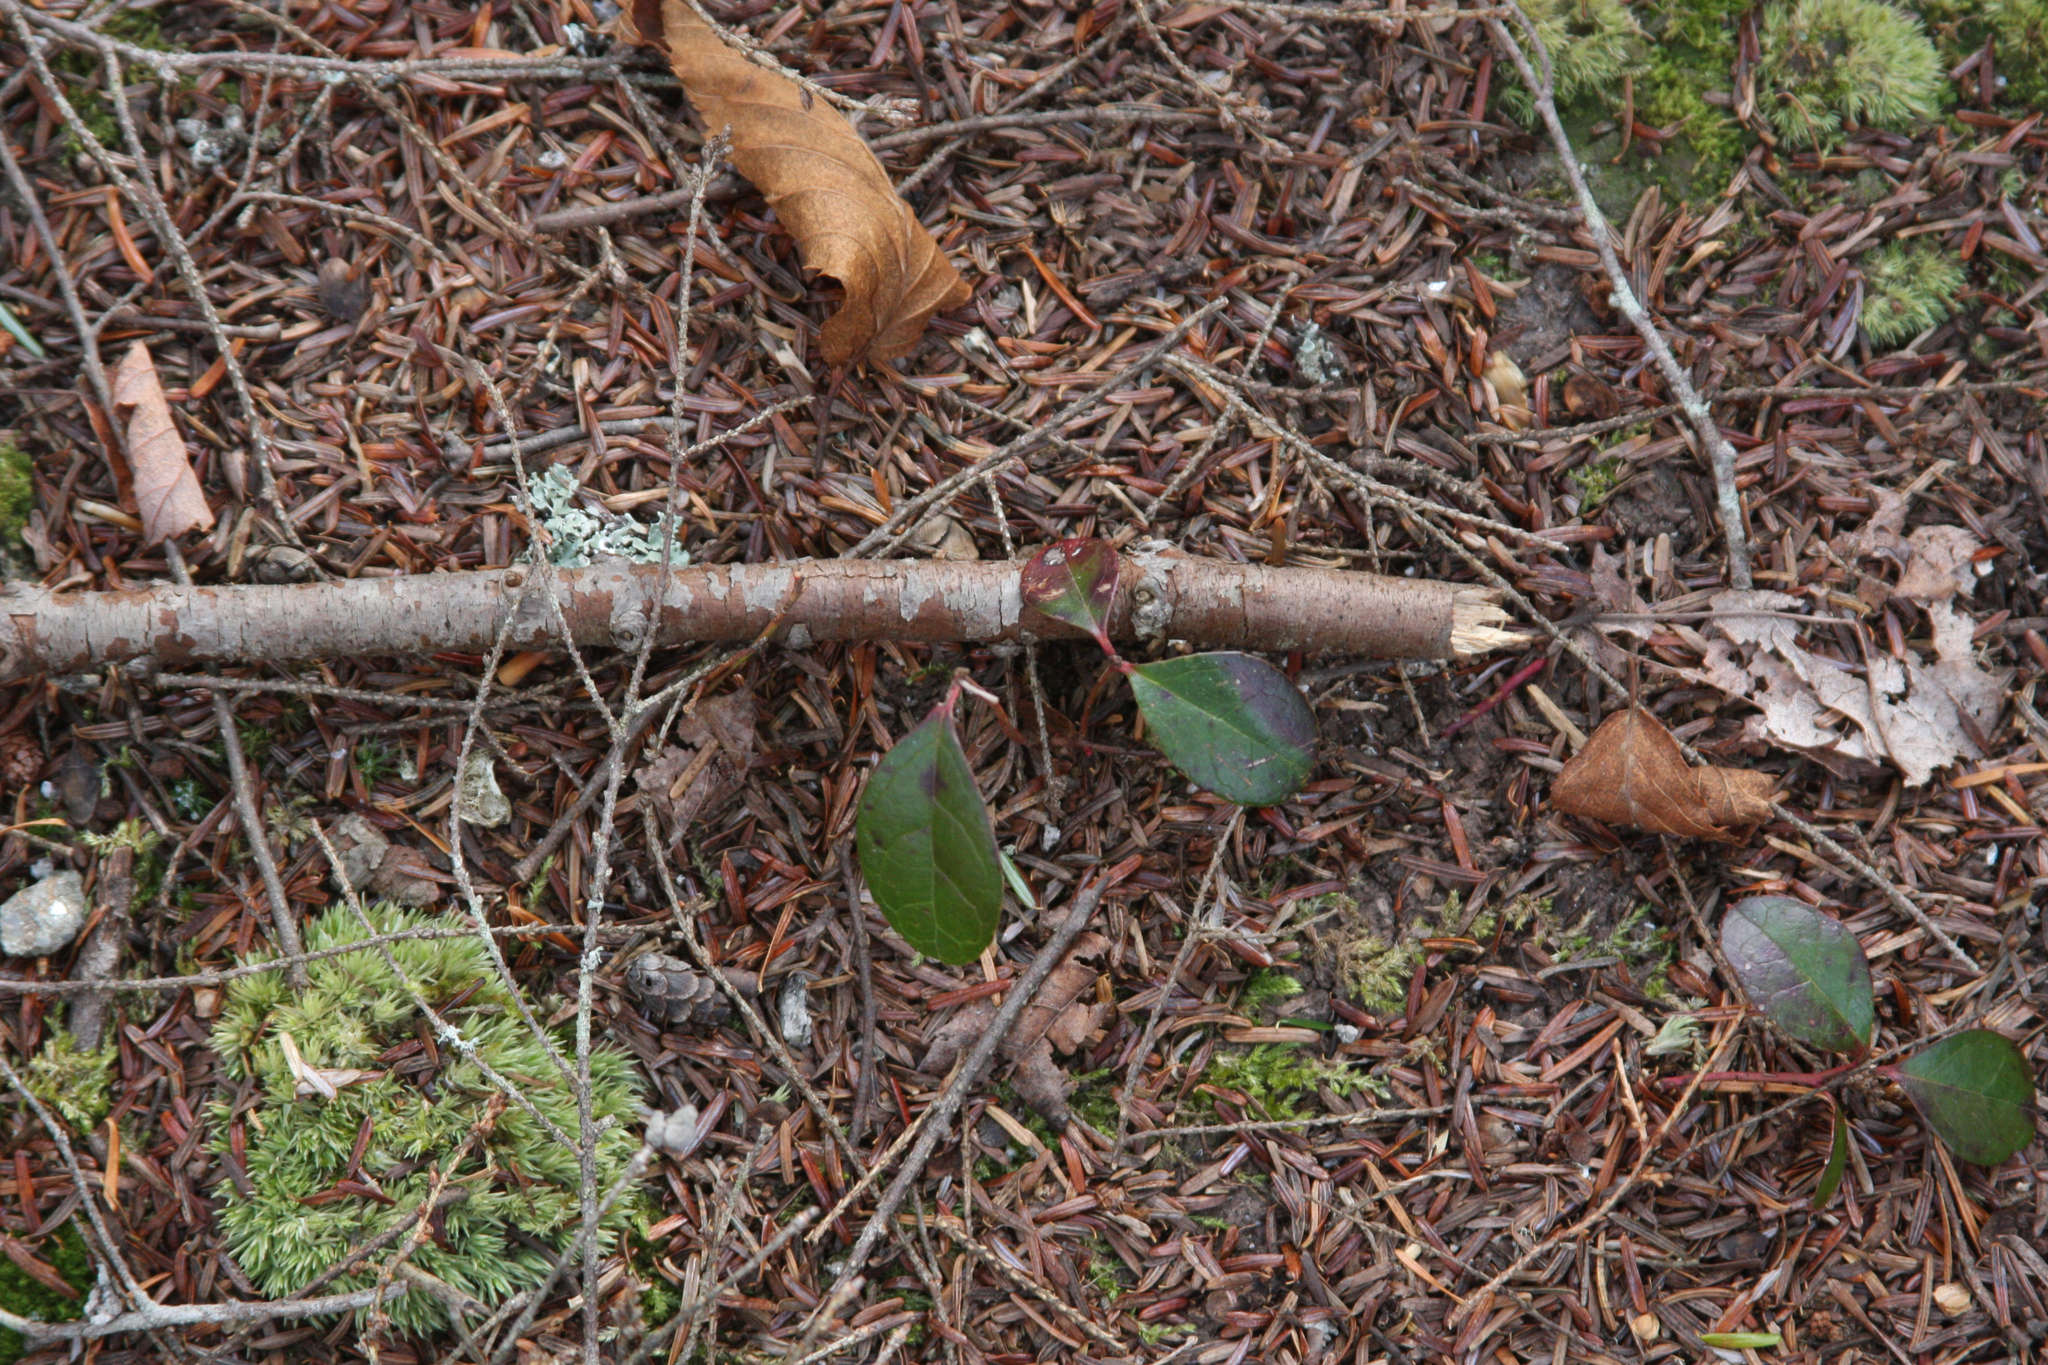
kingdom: Plantae
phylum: Tracheophyta
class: Magnoliopsida
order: Ericales
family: Ericaceae
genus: Gaultheria
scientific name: Gaultheria procumbens
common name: Checkerberry
